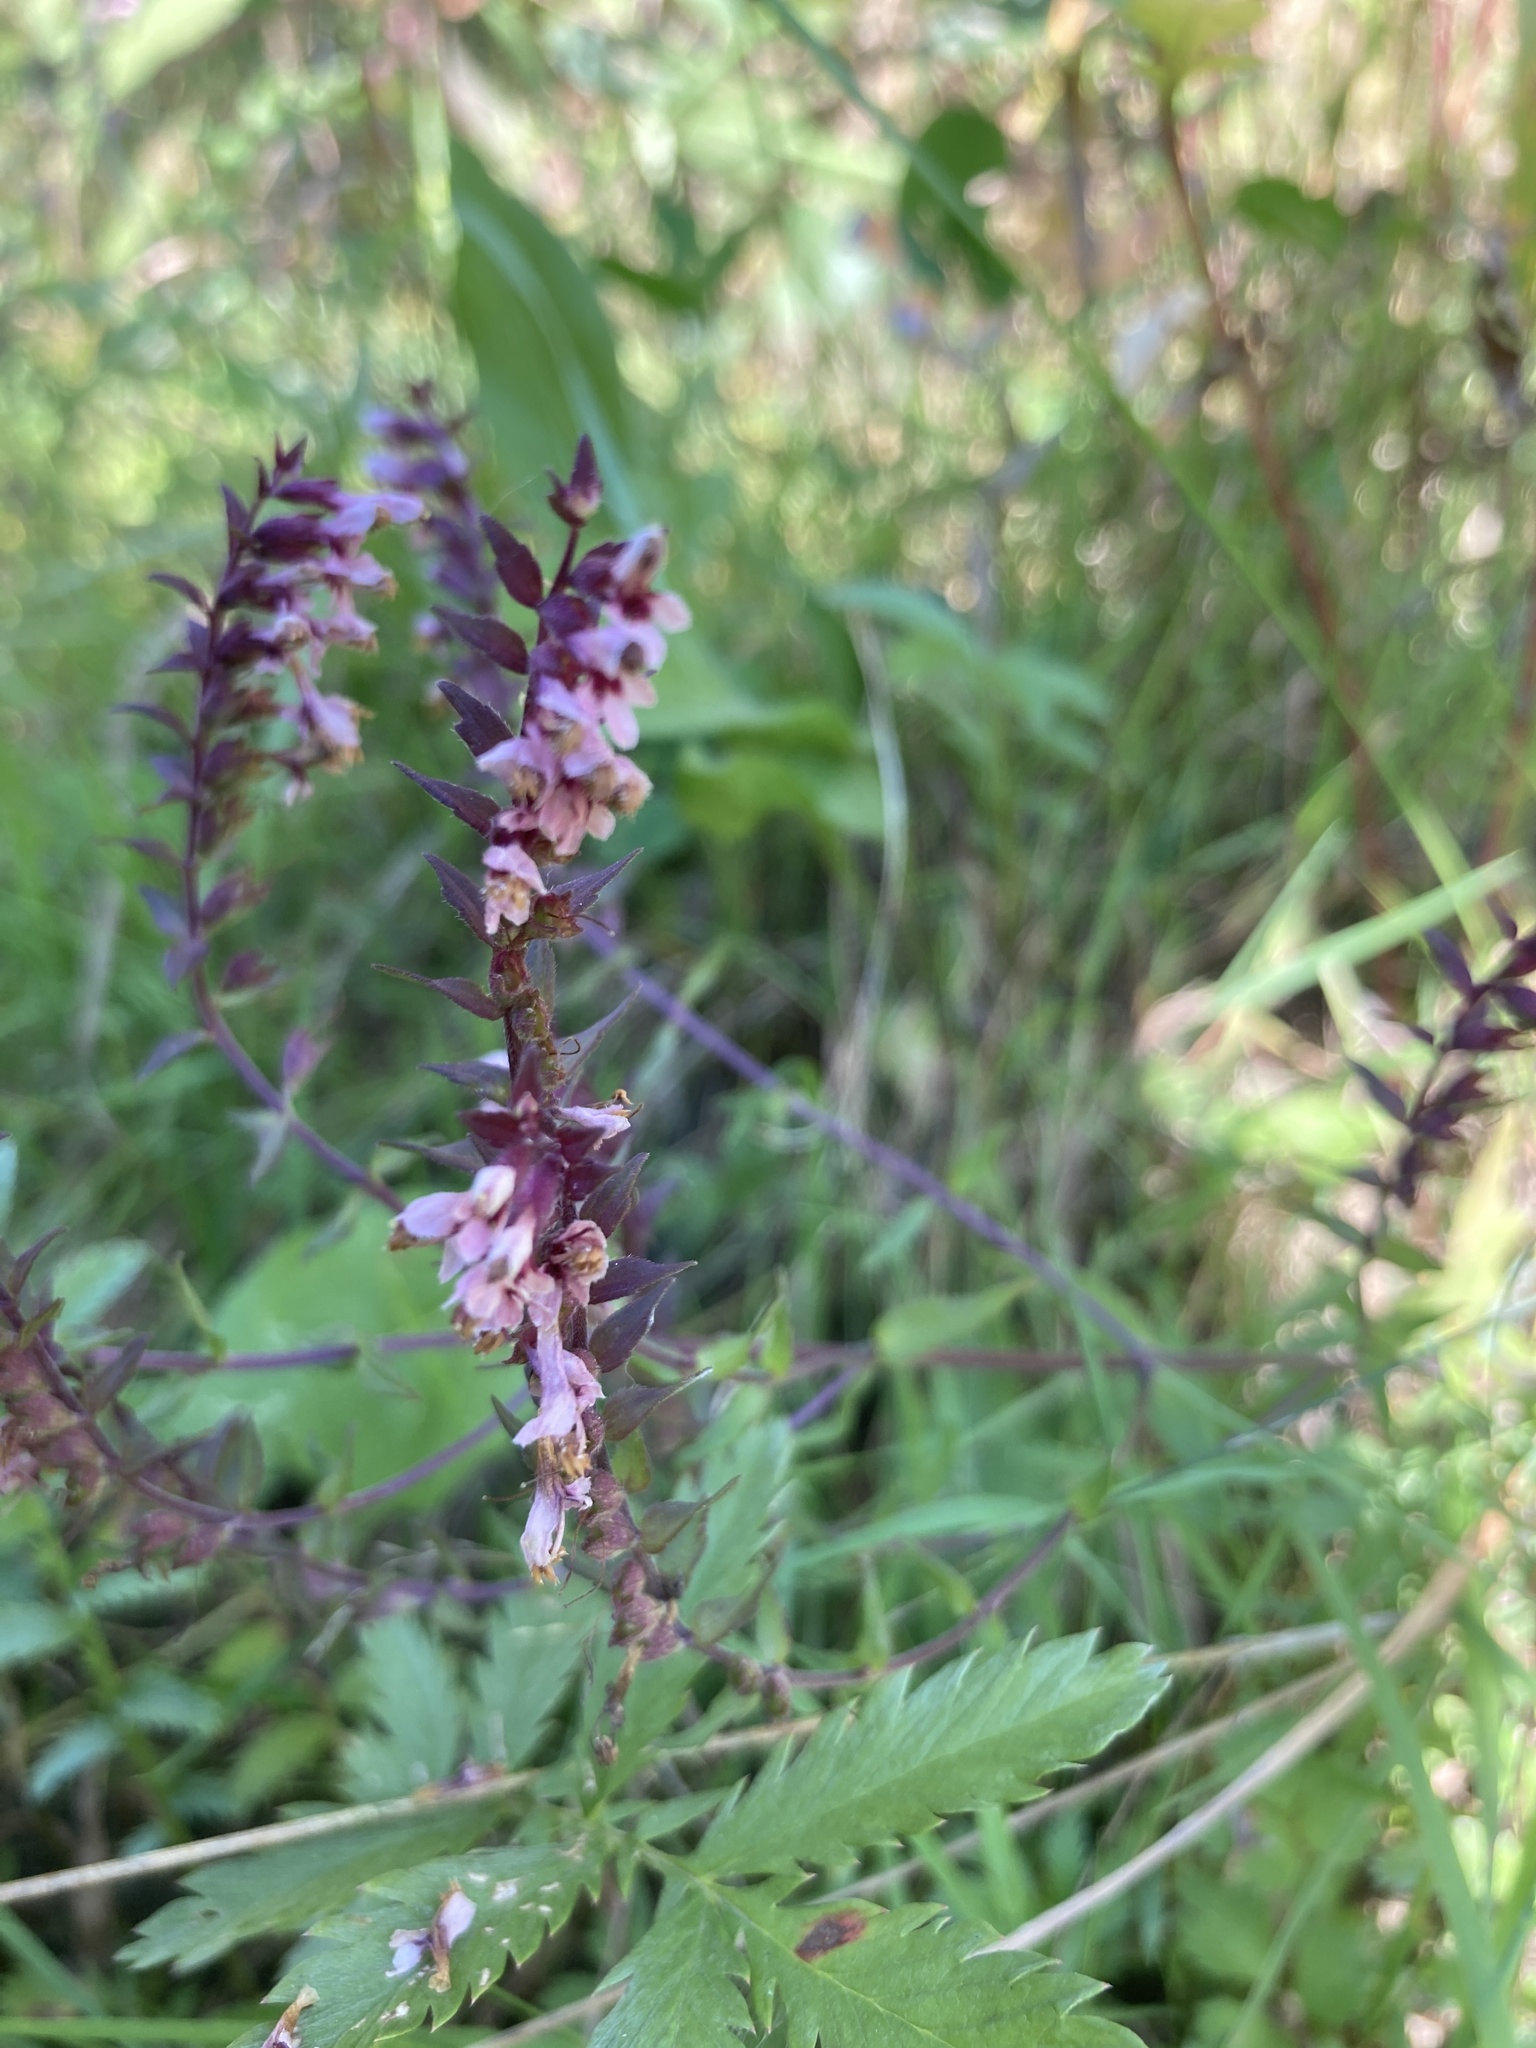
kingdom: Plantae
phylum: Tracheophyta
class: Magnoliopsida
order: Lamiales
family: Orobanchaceae
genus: Odontites
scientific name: Odontites vulgaris
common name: Broomrape
